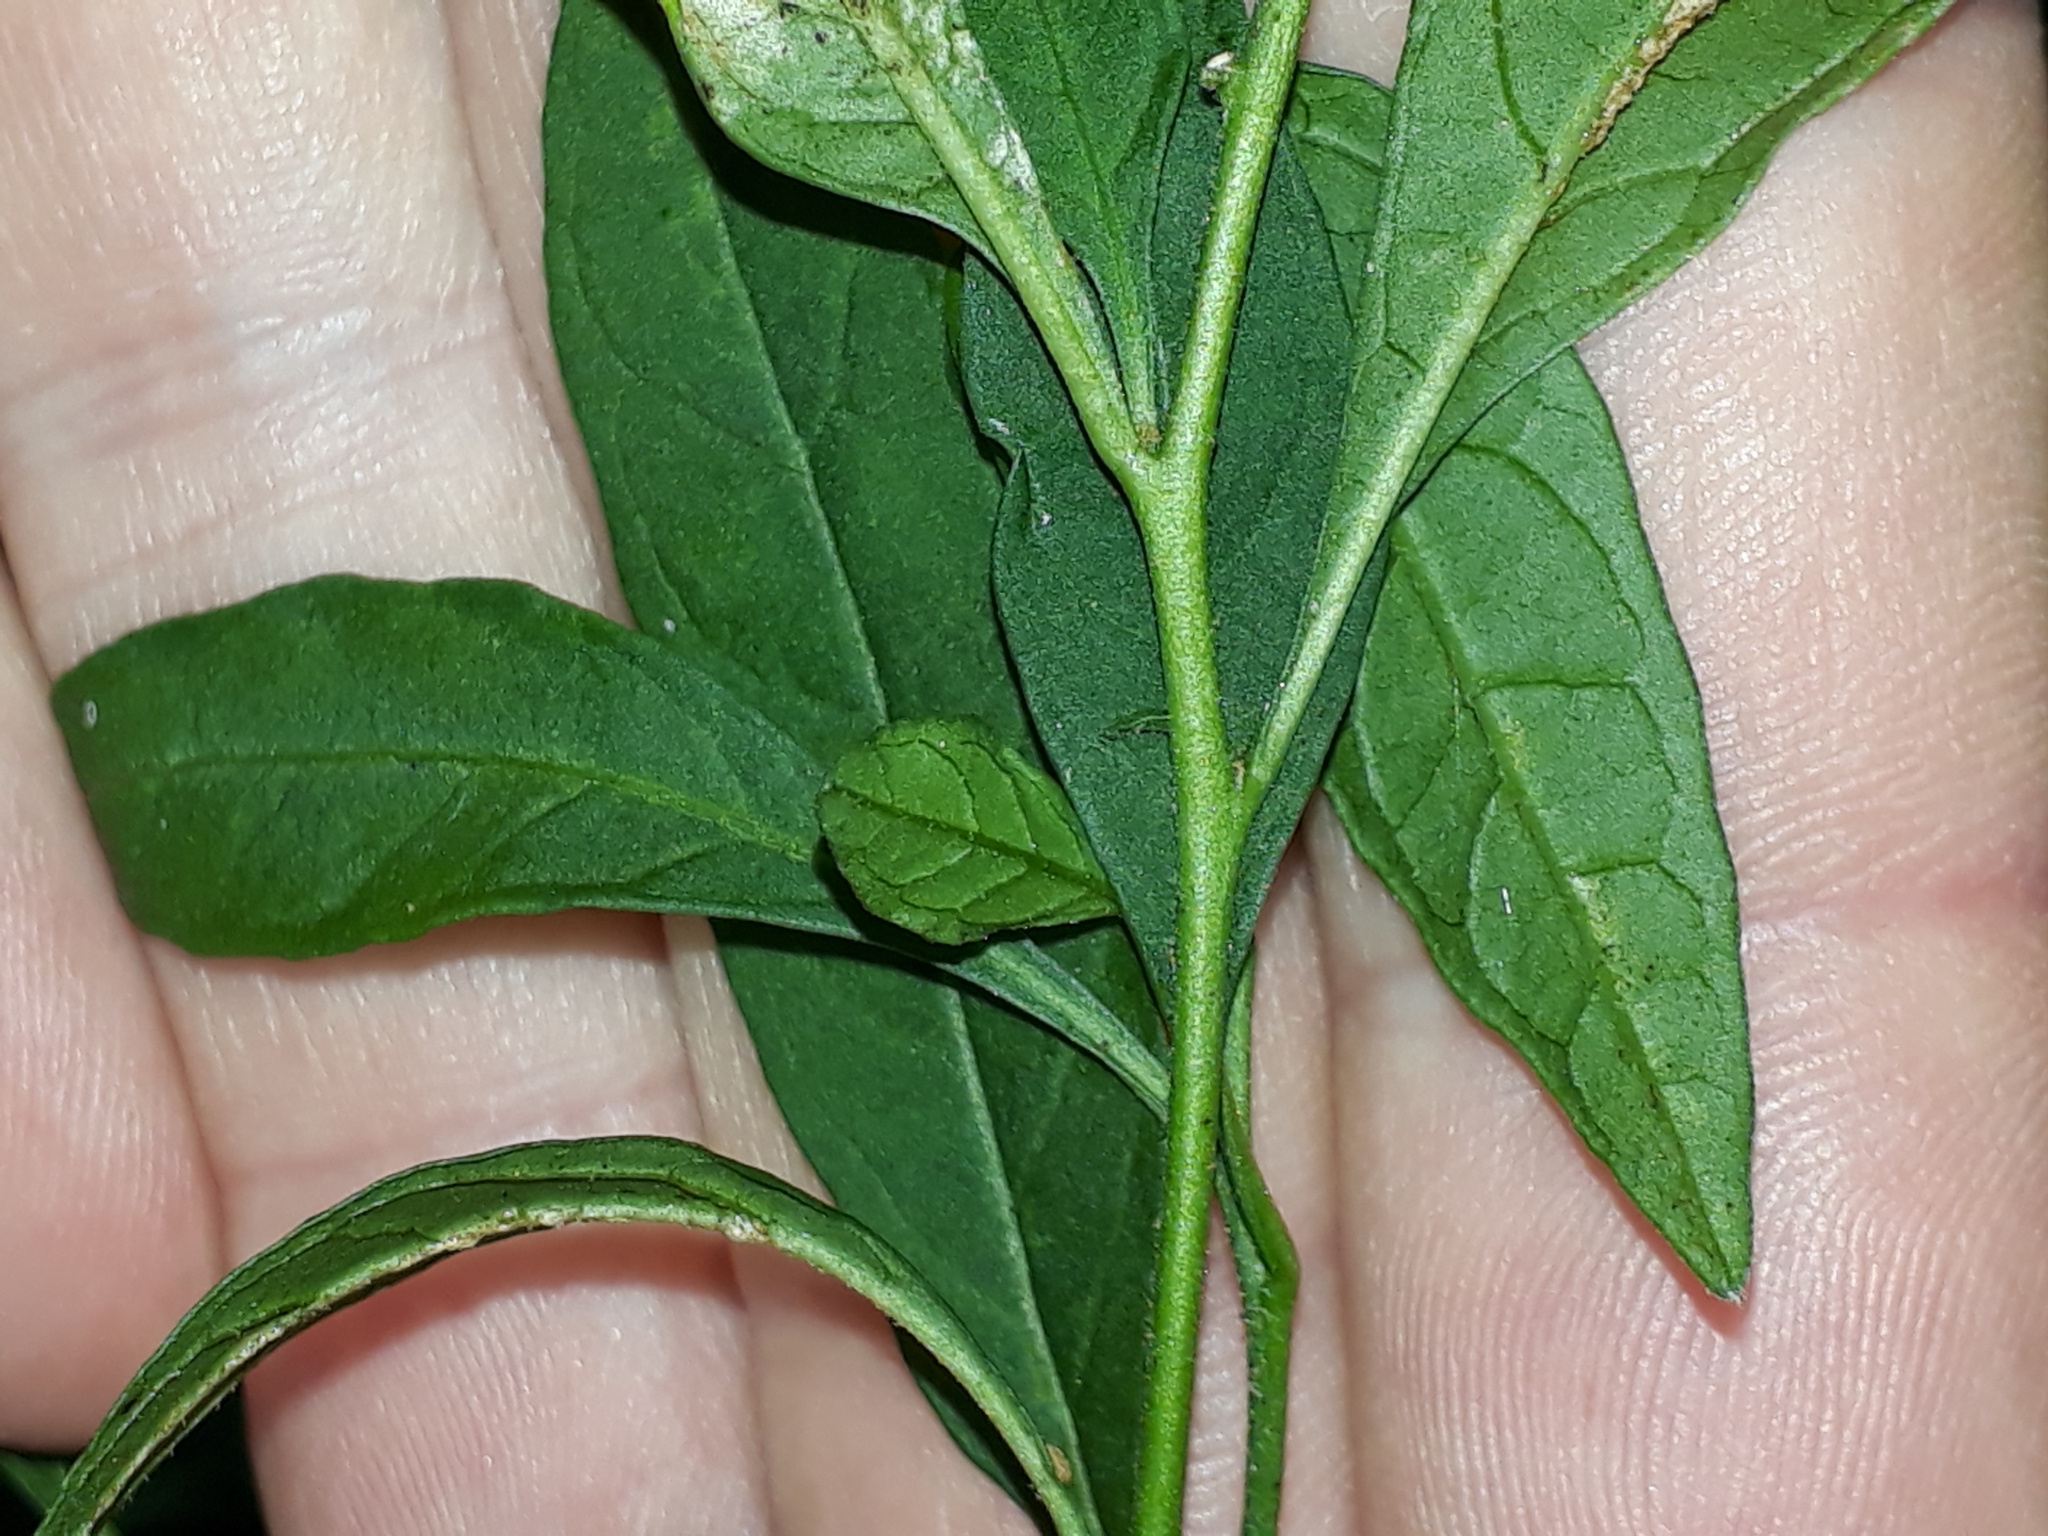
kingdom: Plantae
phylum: Tracheophyta
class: Magnoliopsida
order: Solanales
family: Solanaceae
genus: Solanum
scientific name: Solanum pseudocapsicum
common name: Jerusalem cherry
